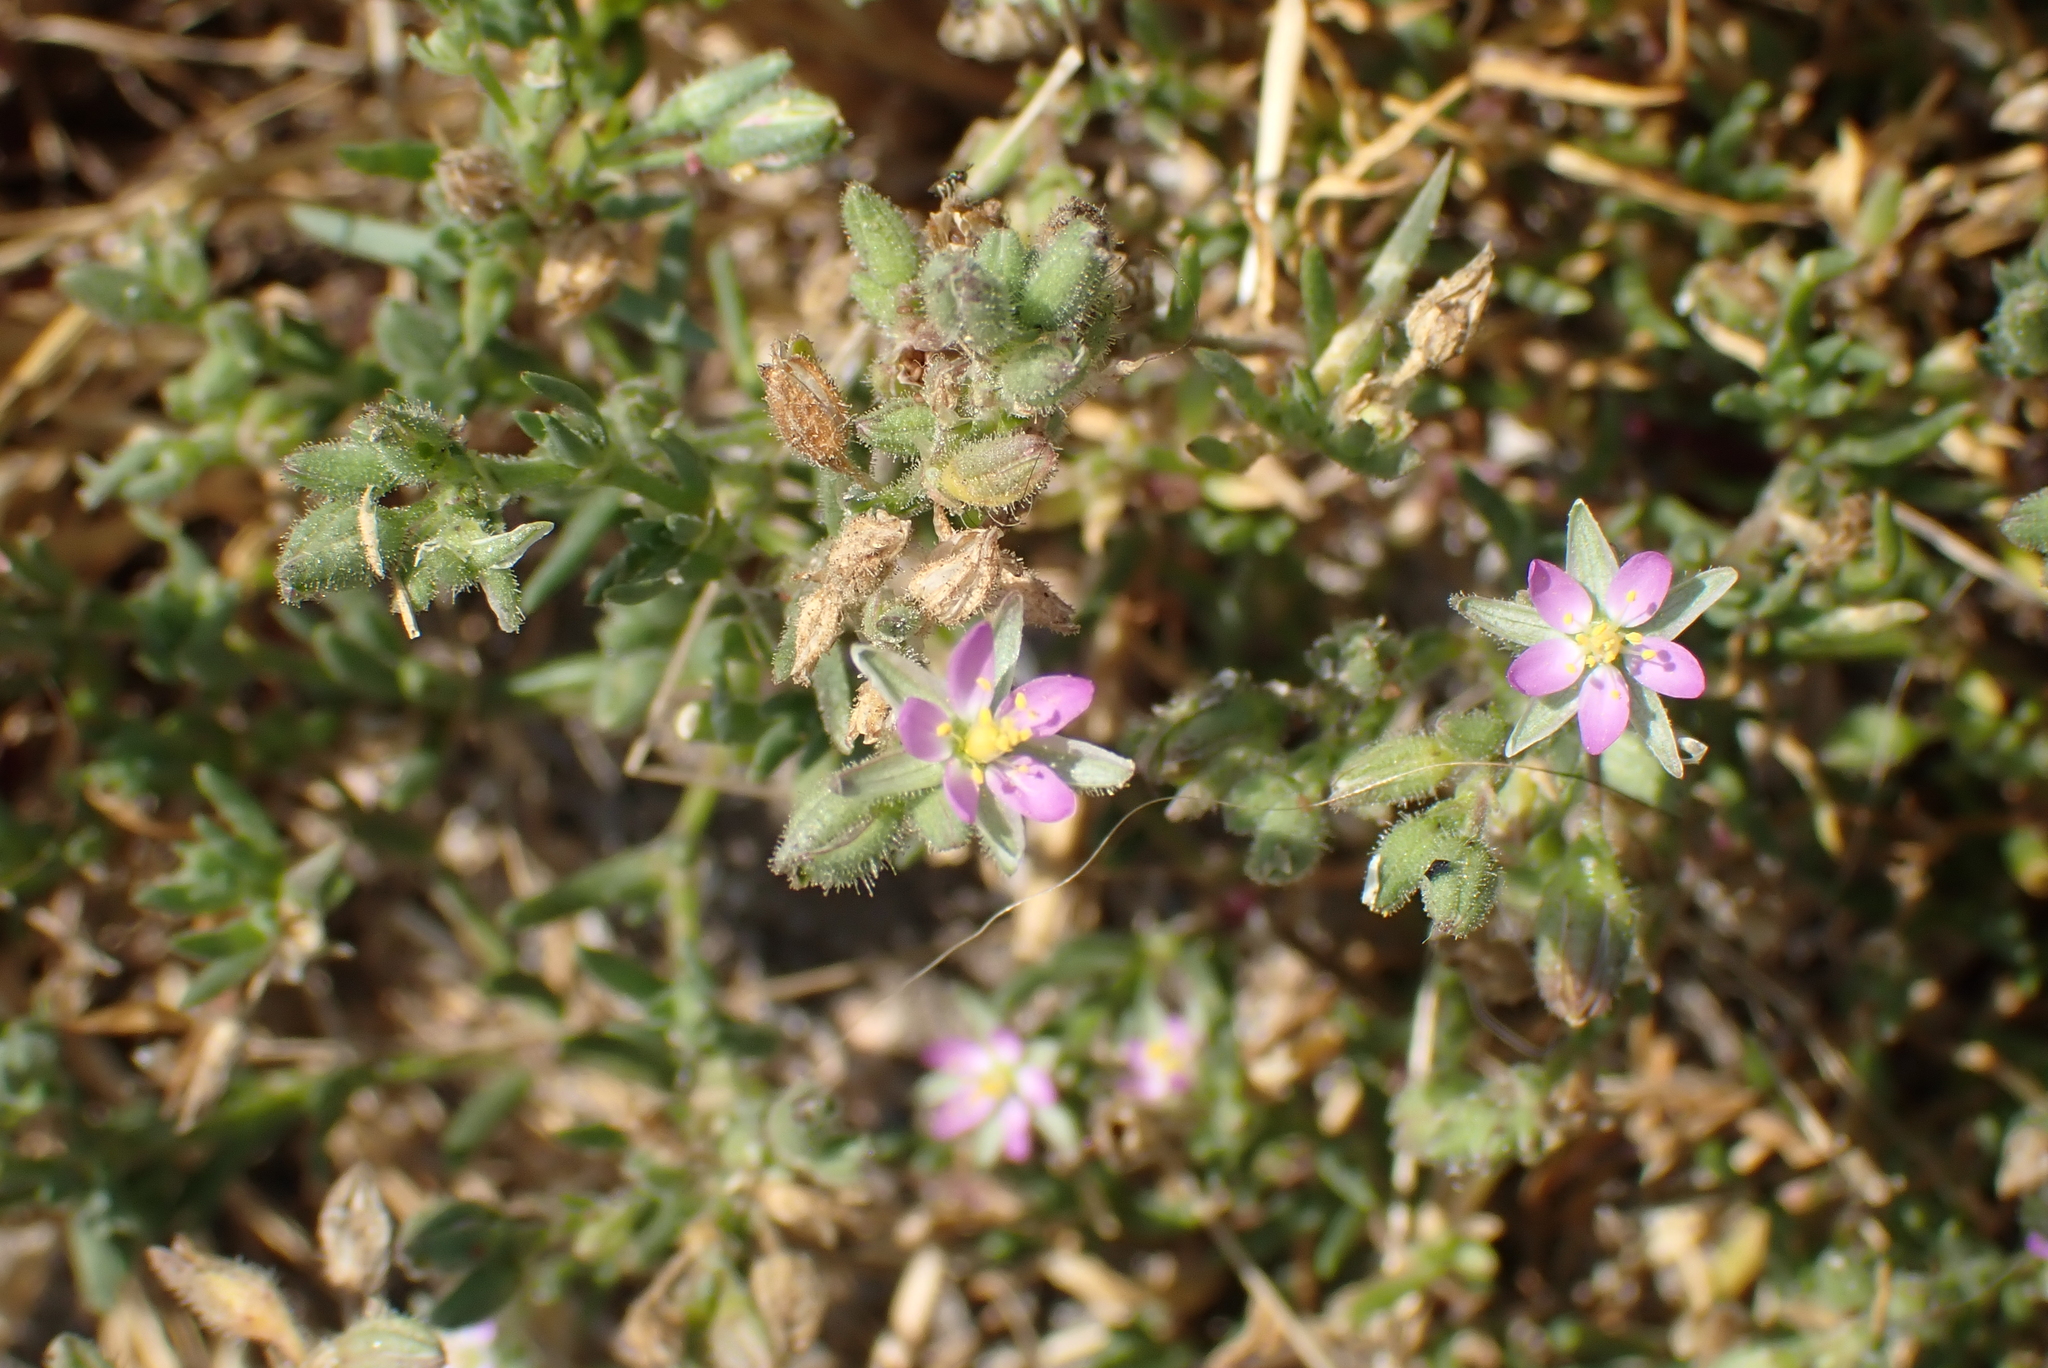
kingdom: Plantae
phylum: Tracheophyta
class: Magnoliopsida
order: Caryophyllales
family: Caryophyllaceae
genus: Spergularia
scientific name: Spergularia marina
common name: Lesser sea-spurrey
